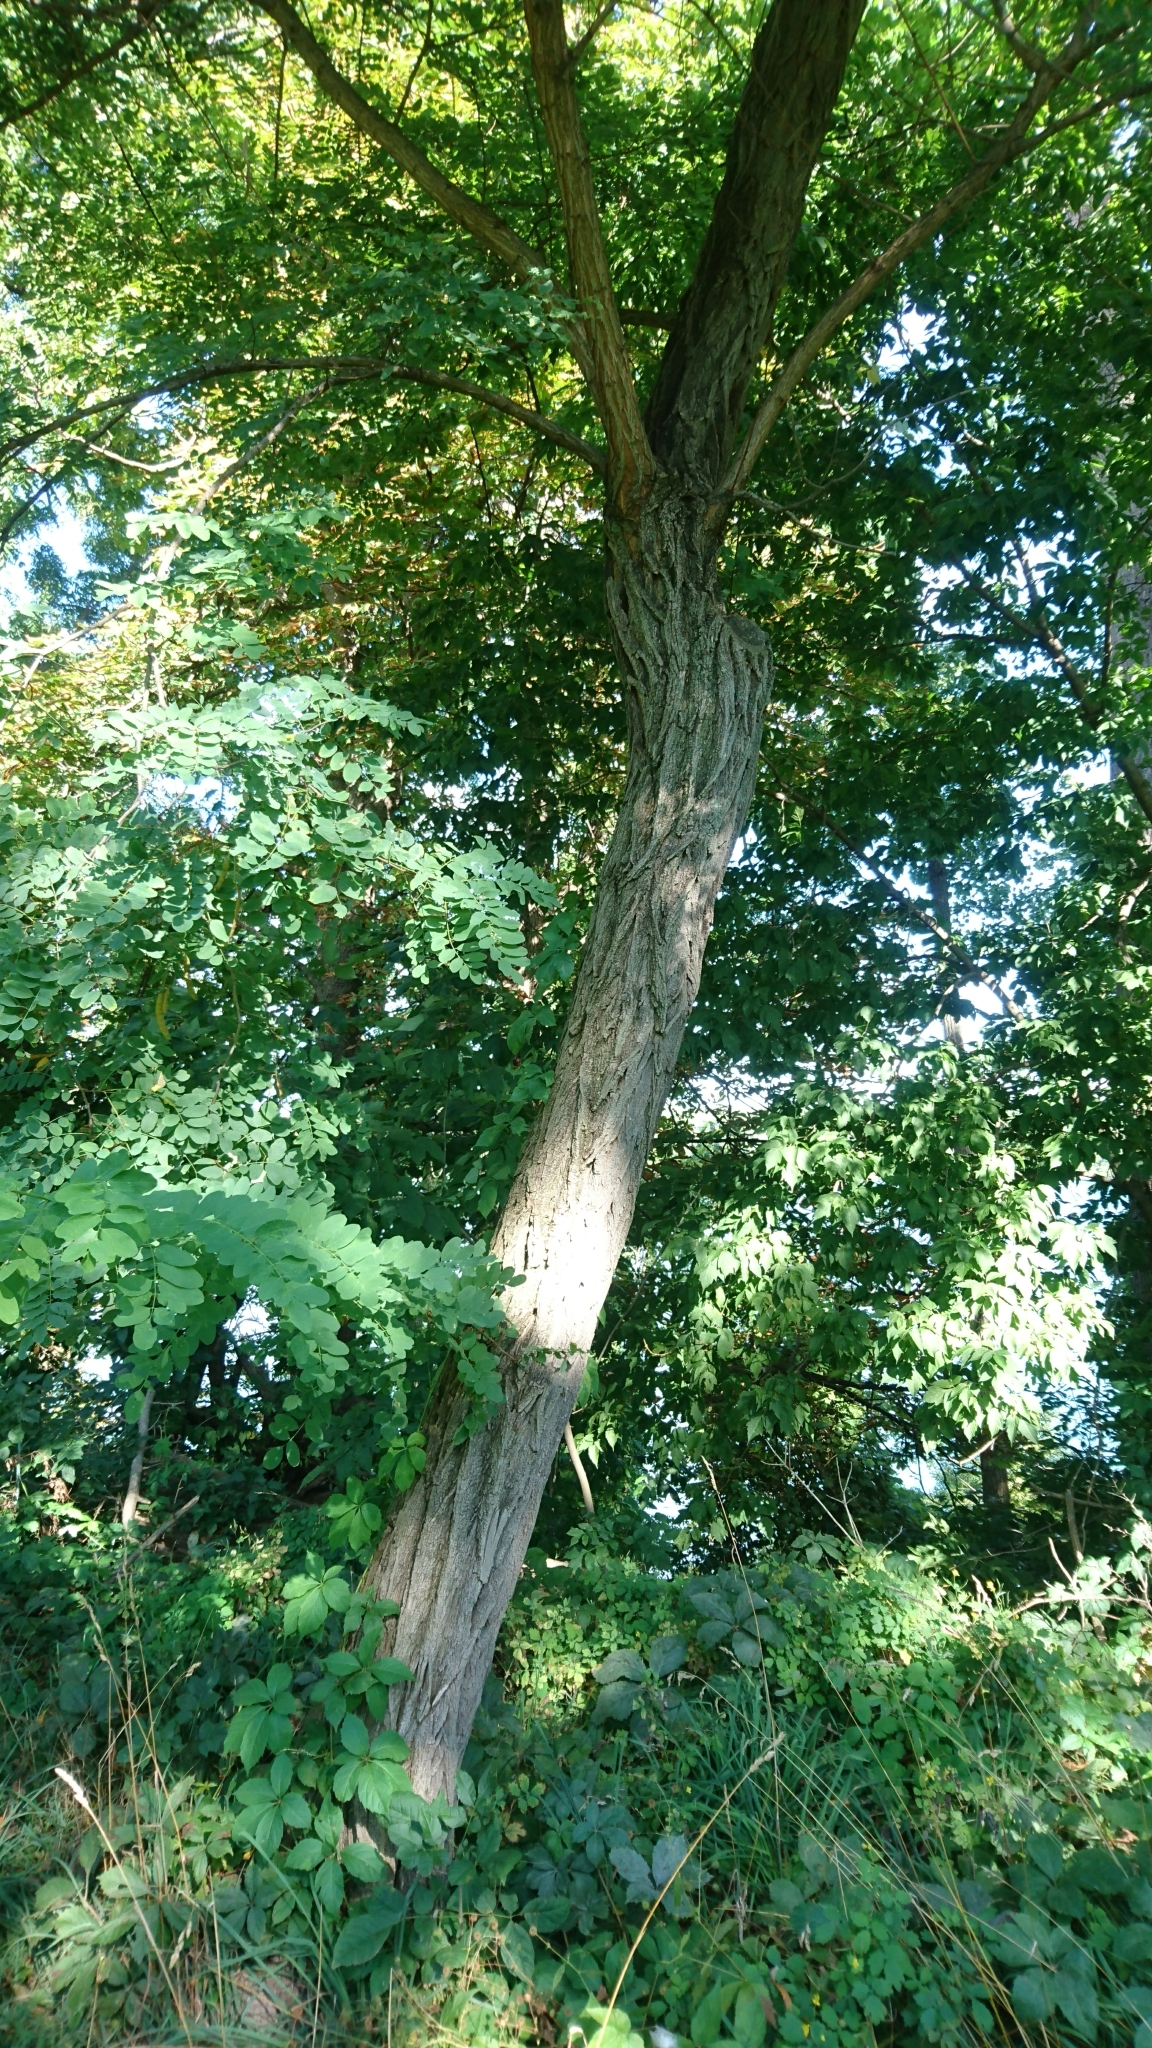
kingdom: Plantae
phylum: Tracheophyta
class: Magnoliopsida
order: Fabales
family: Fabaceae
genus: Robinia
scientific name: Robinia pseudoacacia
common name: Black locust
